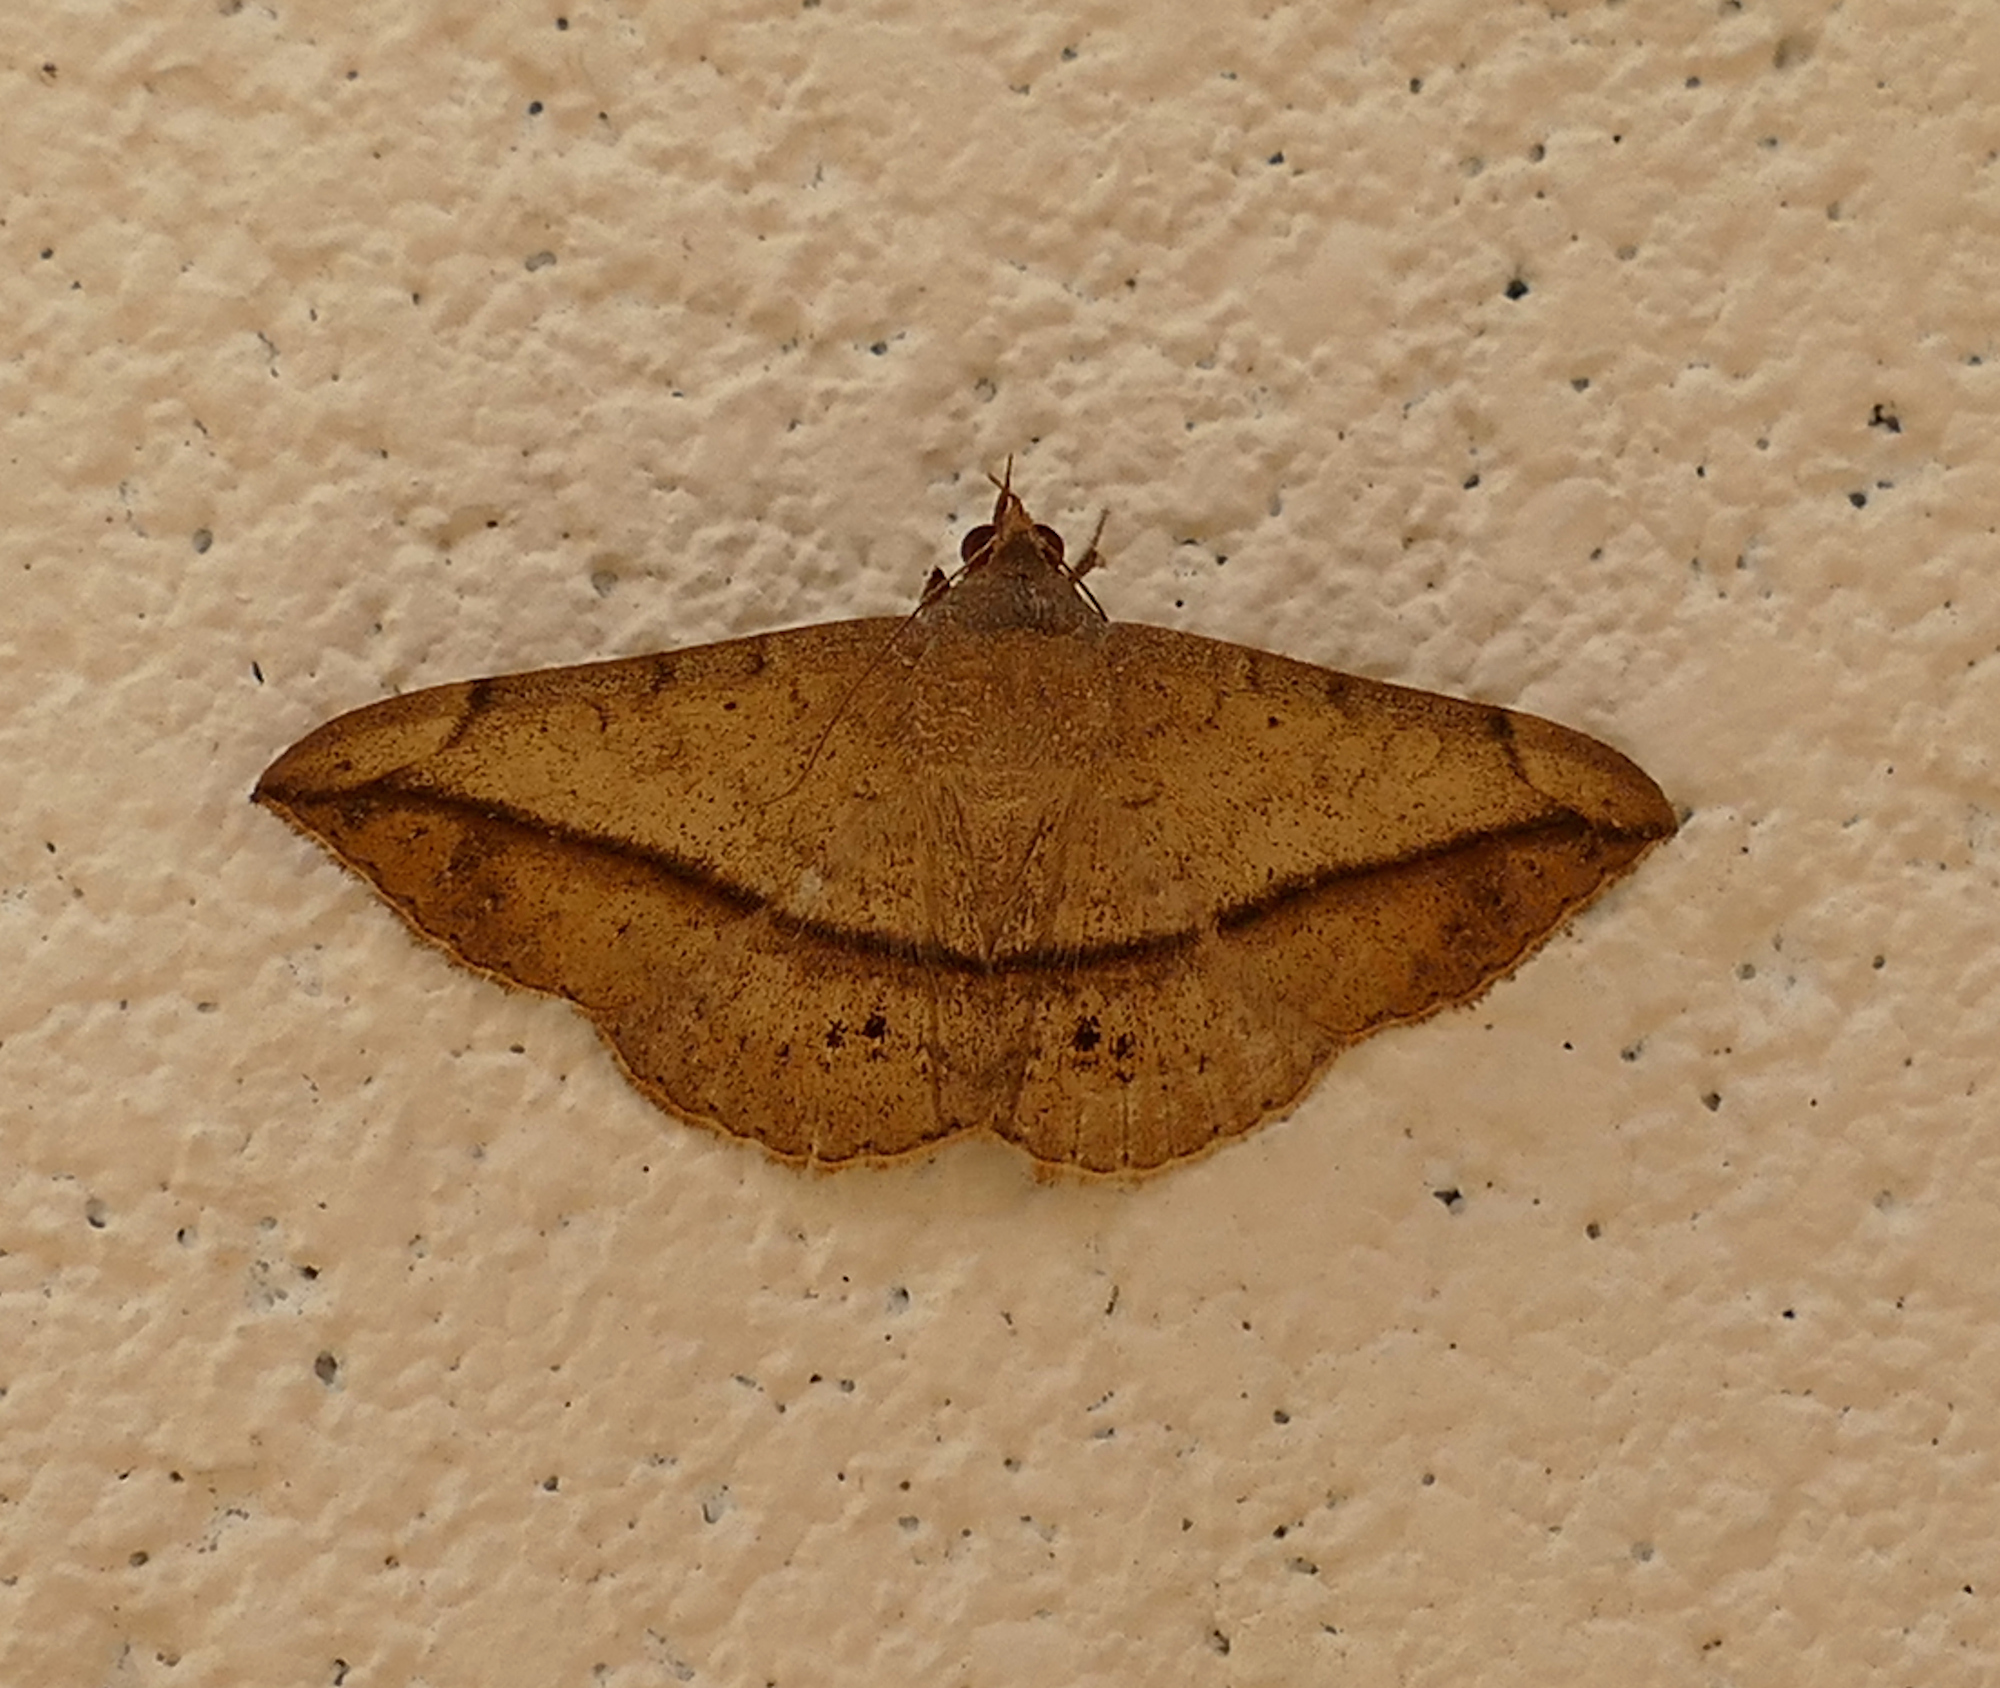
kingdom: Animalia
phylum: Arthropoda
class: Insecta
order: Lepidoptera
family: Erebidae
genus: Anticarsia
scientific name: Anticarsia gemmatalis
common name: Cutworm moth
